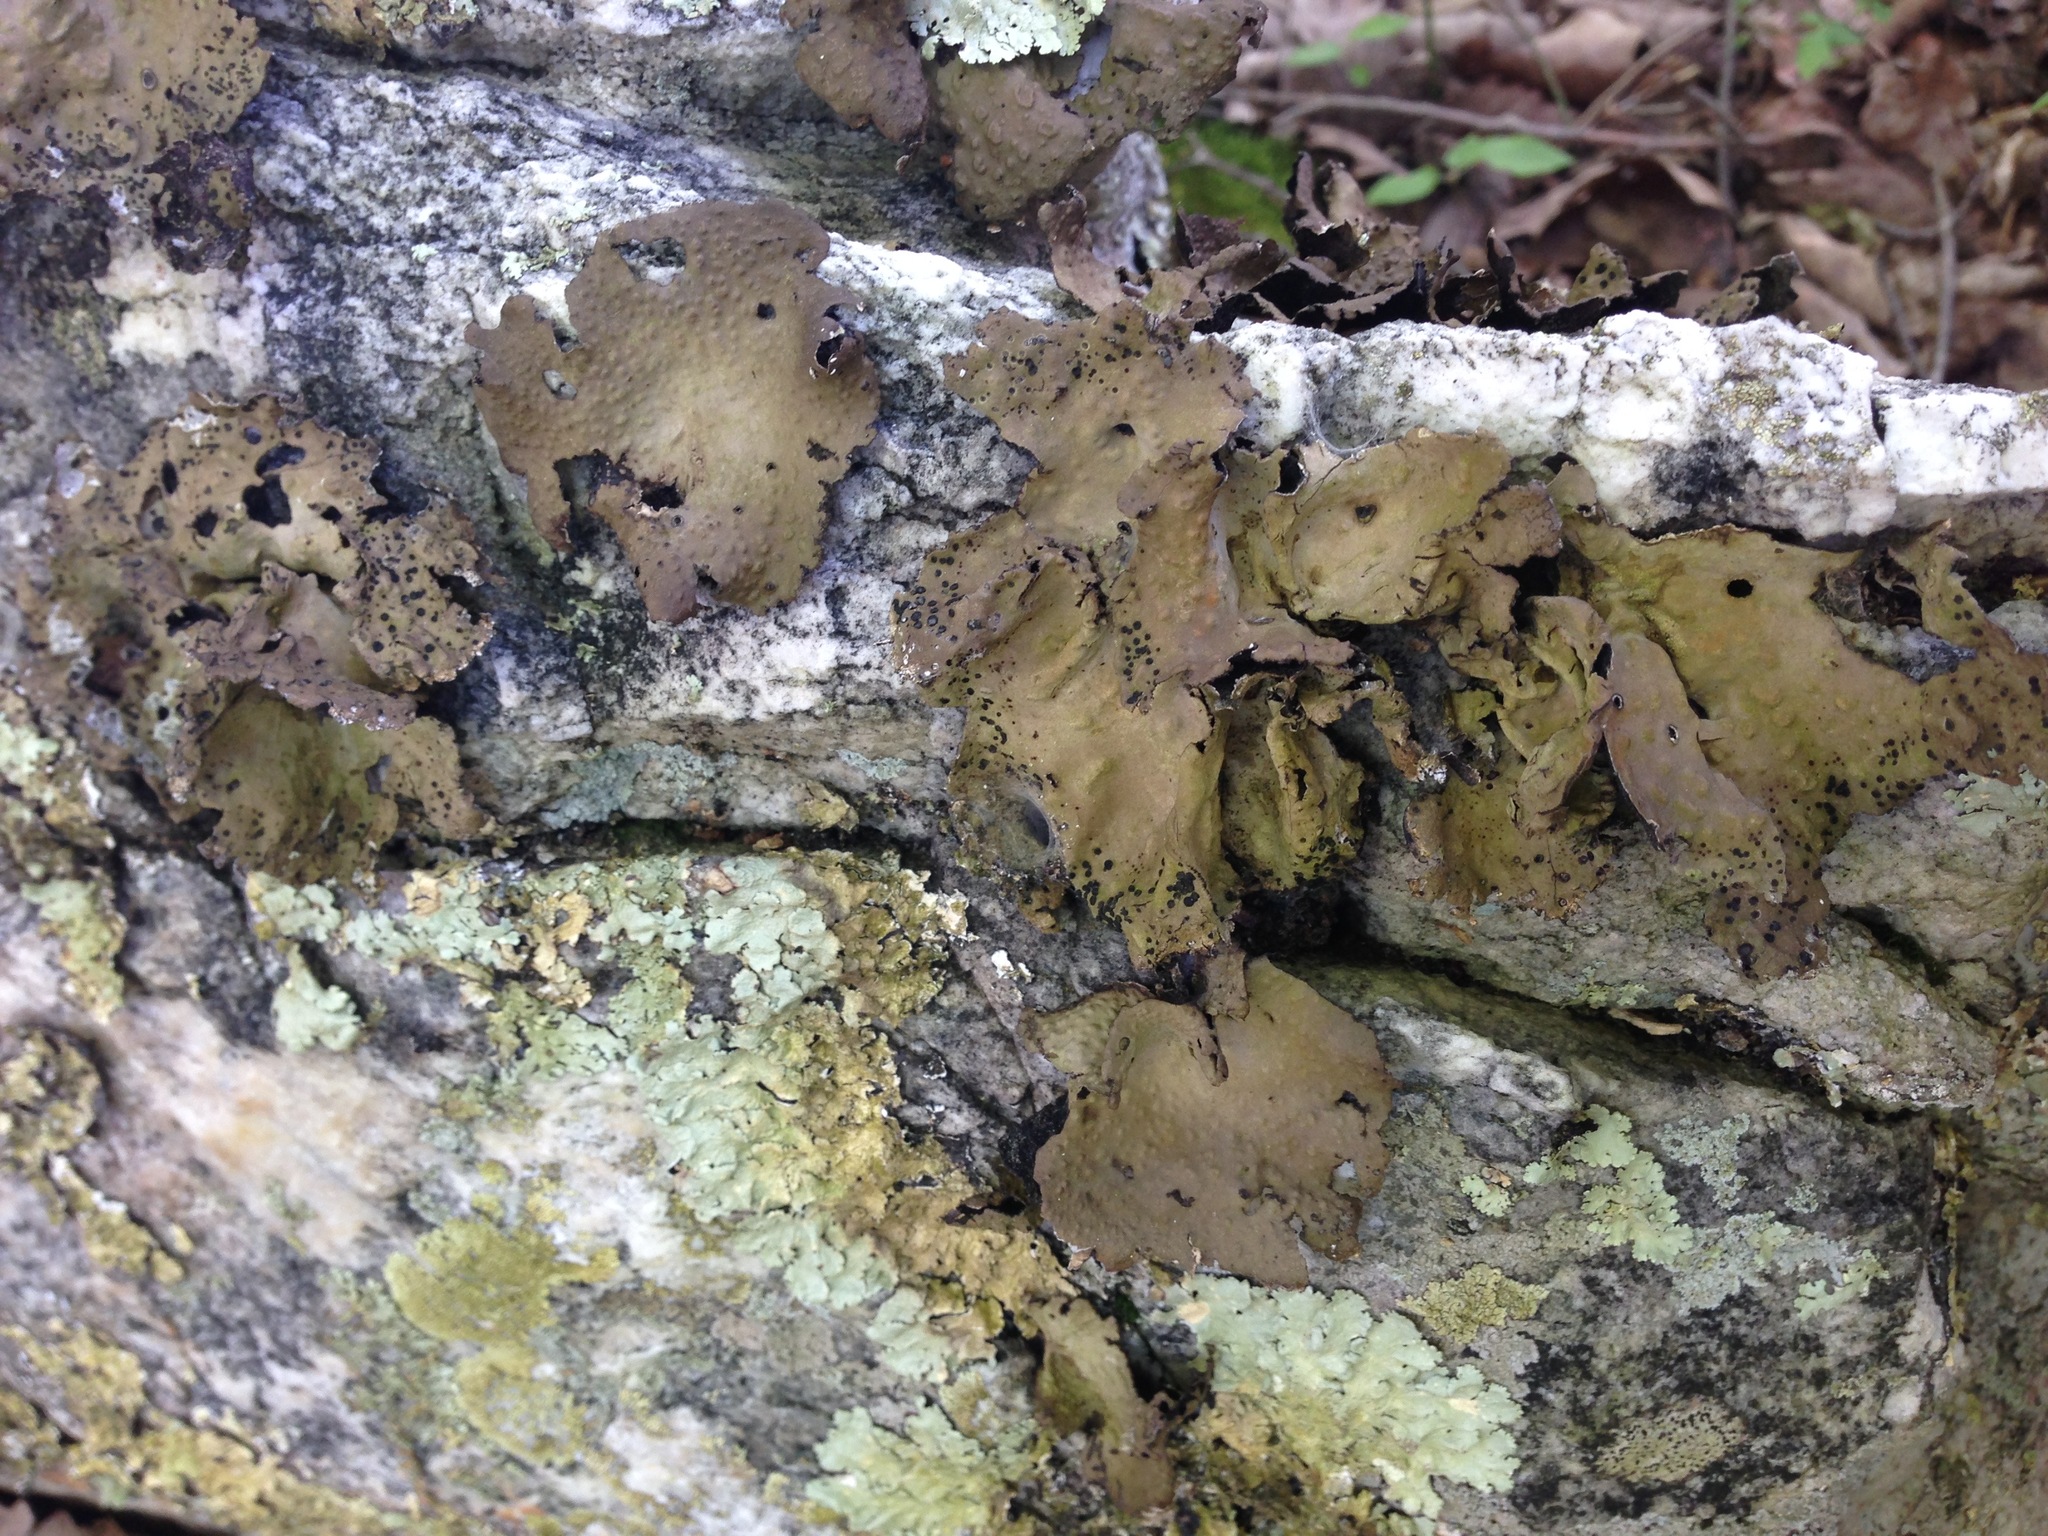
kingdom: Fungi
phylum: Ascomycota
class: Lecanoromycetes
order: Umbilicariales
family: Umbilicariaceae
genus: Lasallia
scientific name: Lasallia pensylvanica
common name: Blackened toadskin lichen
